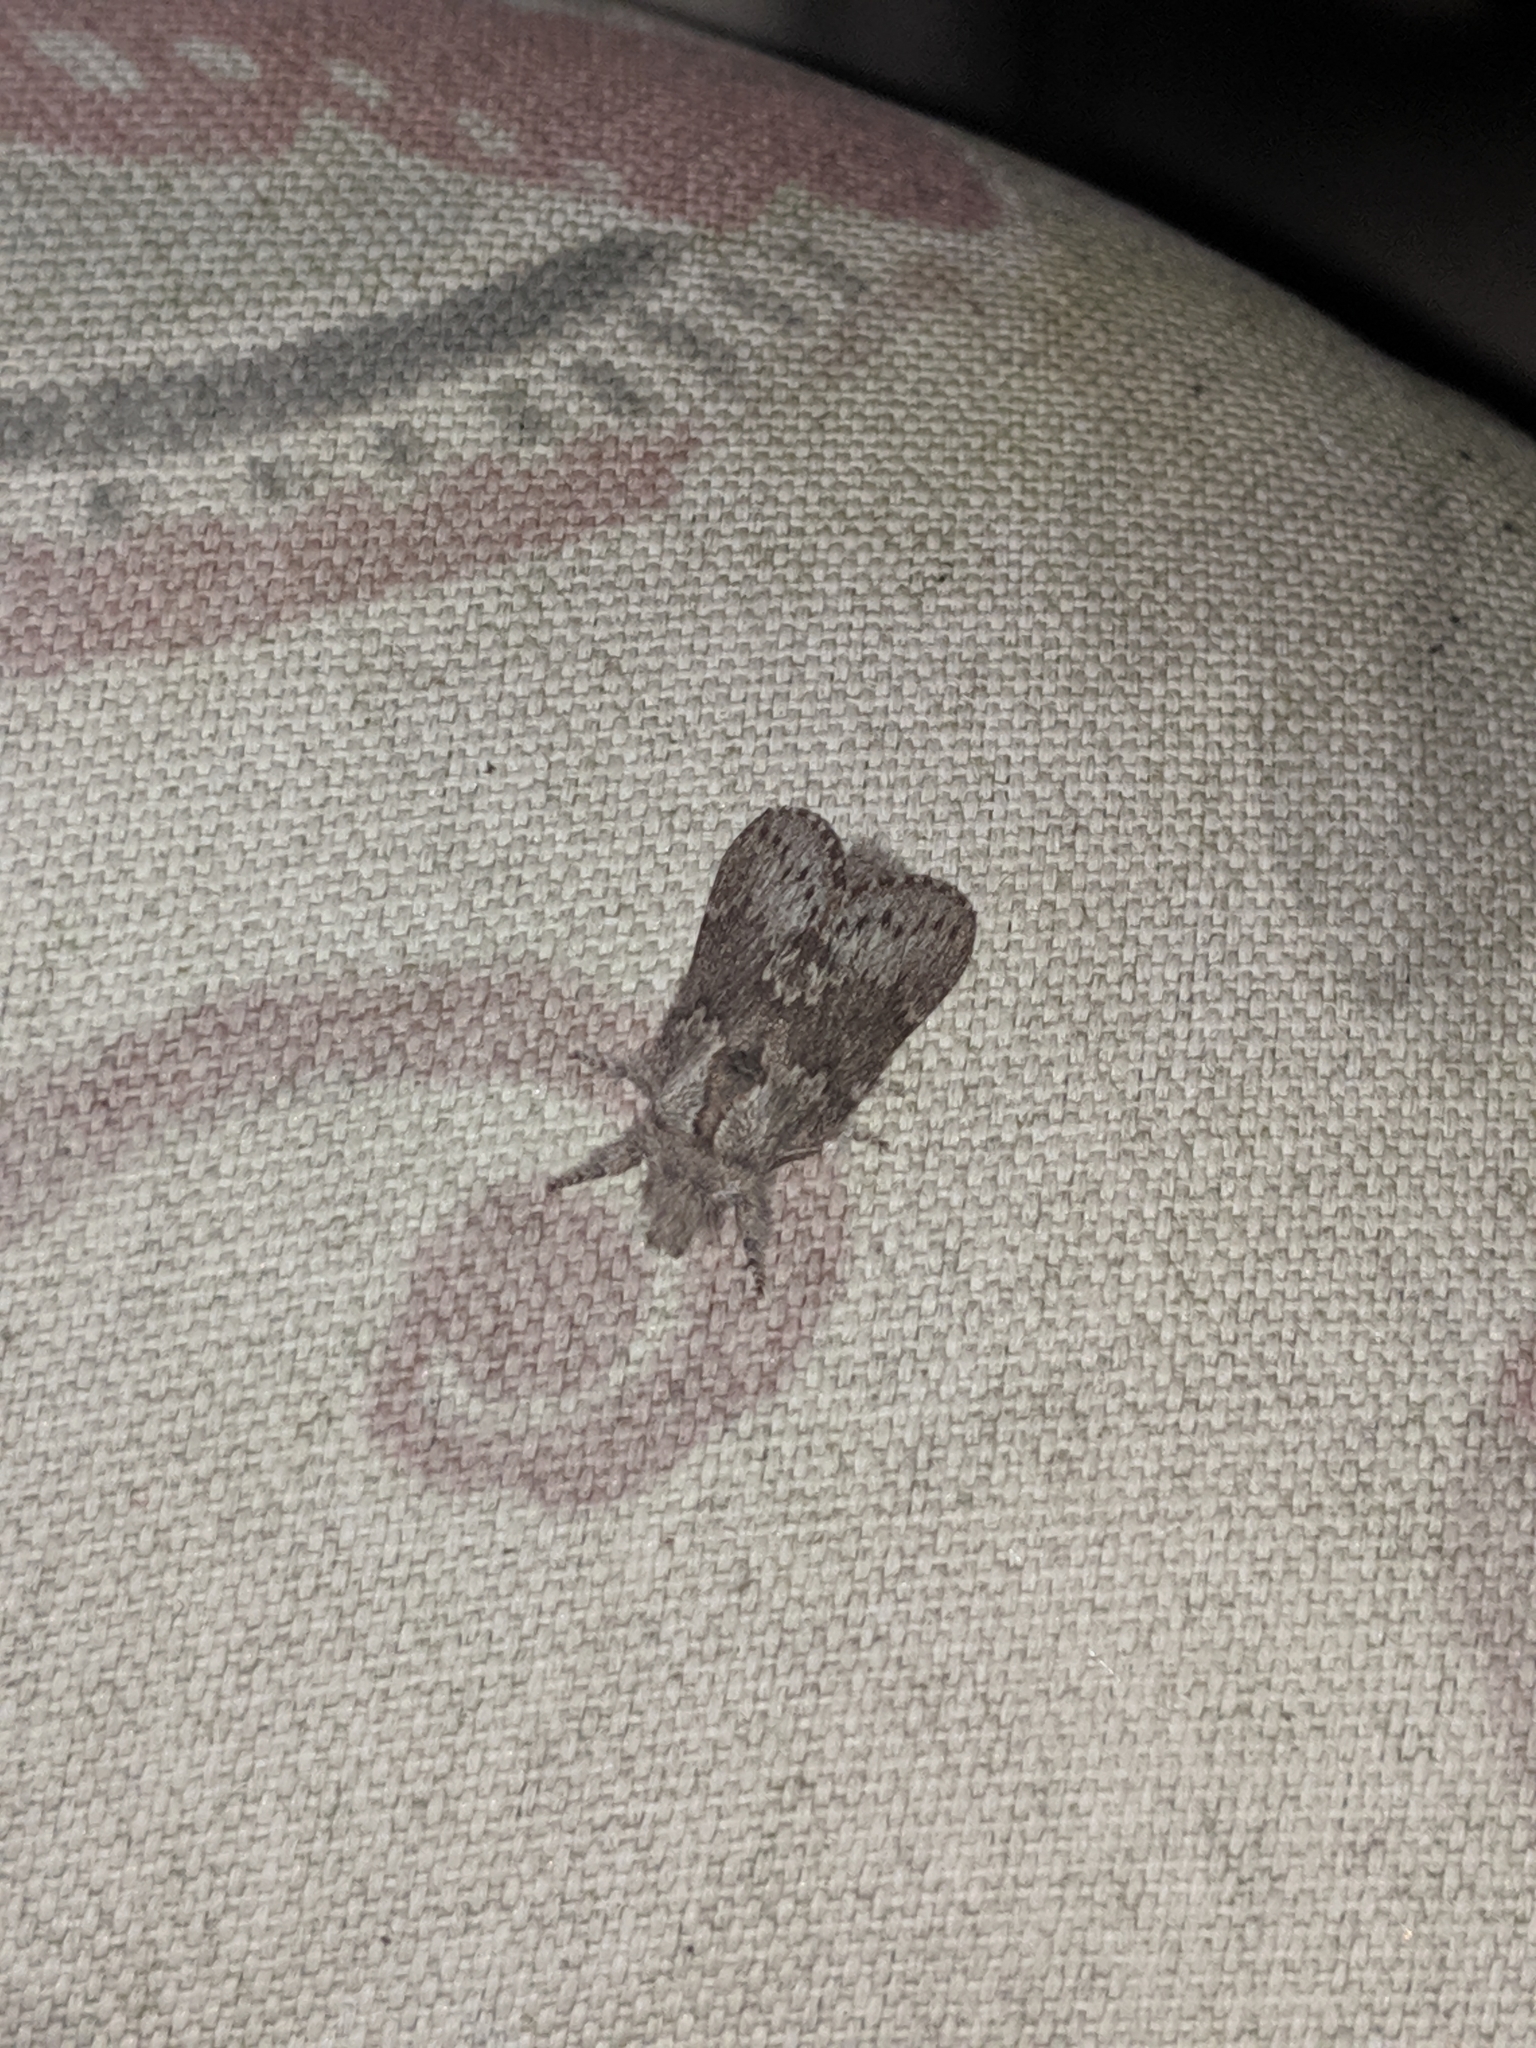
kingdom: Animalia
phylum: Arthropoda
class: Insecta
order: Lepidoptera
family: Lasiocampidae
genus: Heteropacha
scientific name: Heteropacha rileyana
